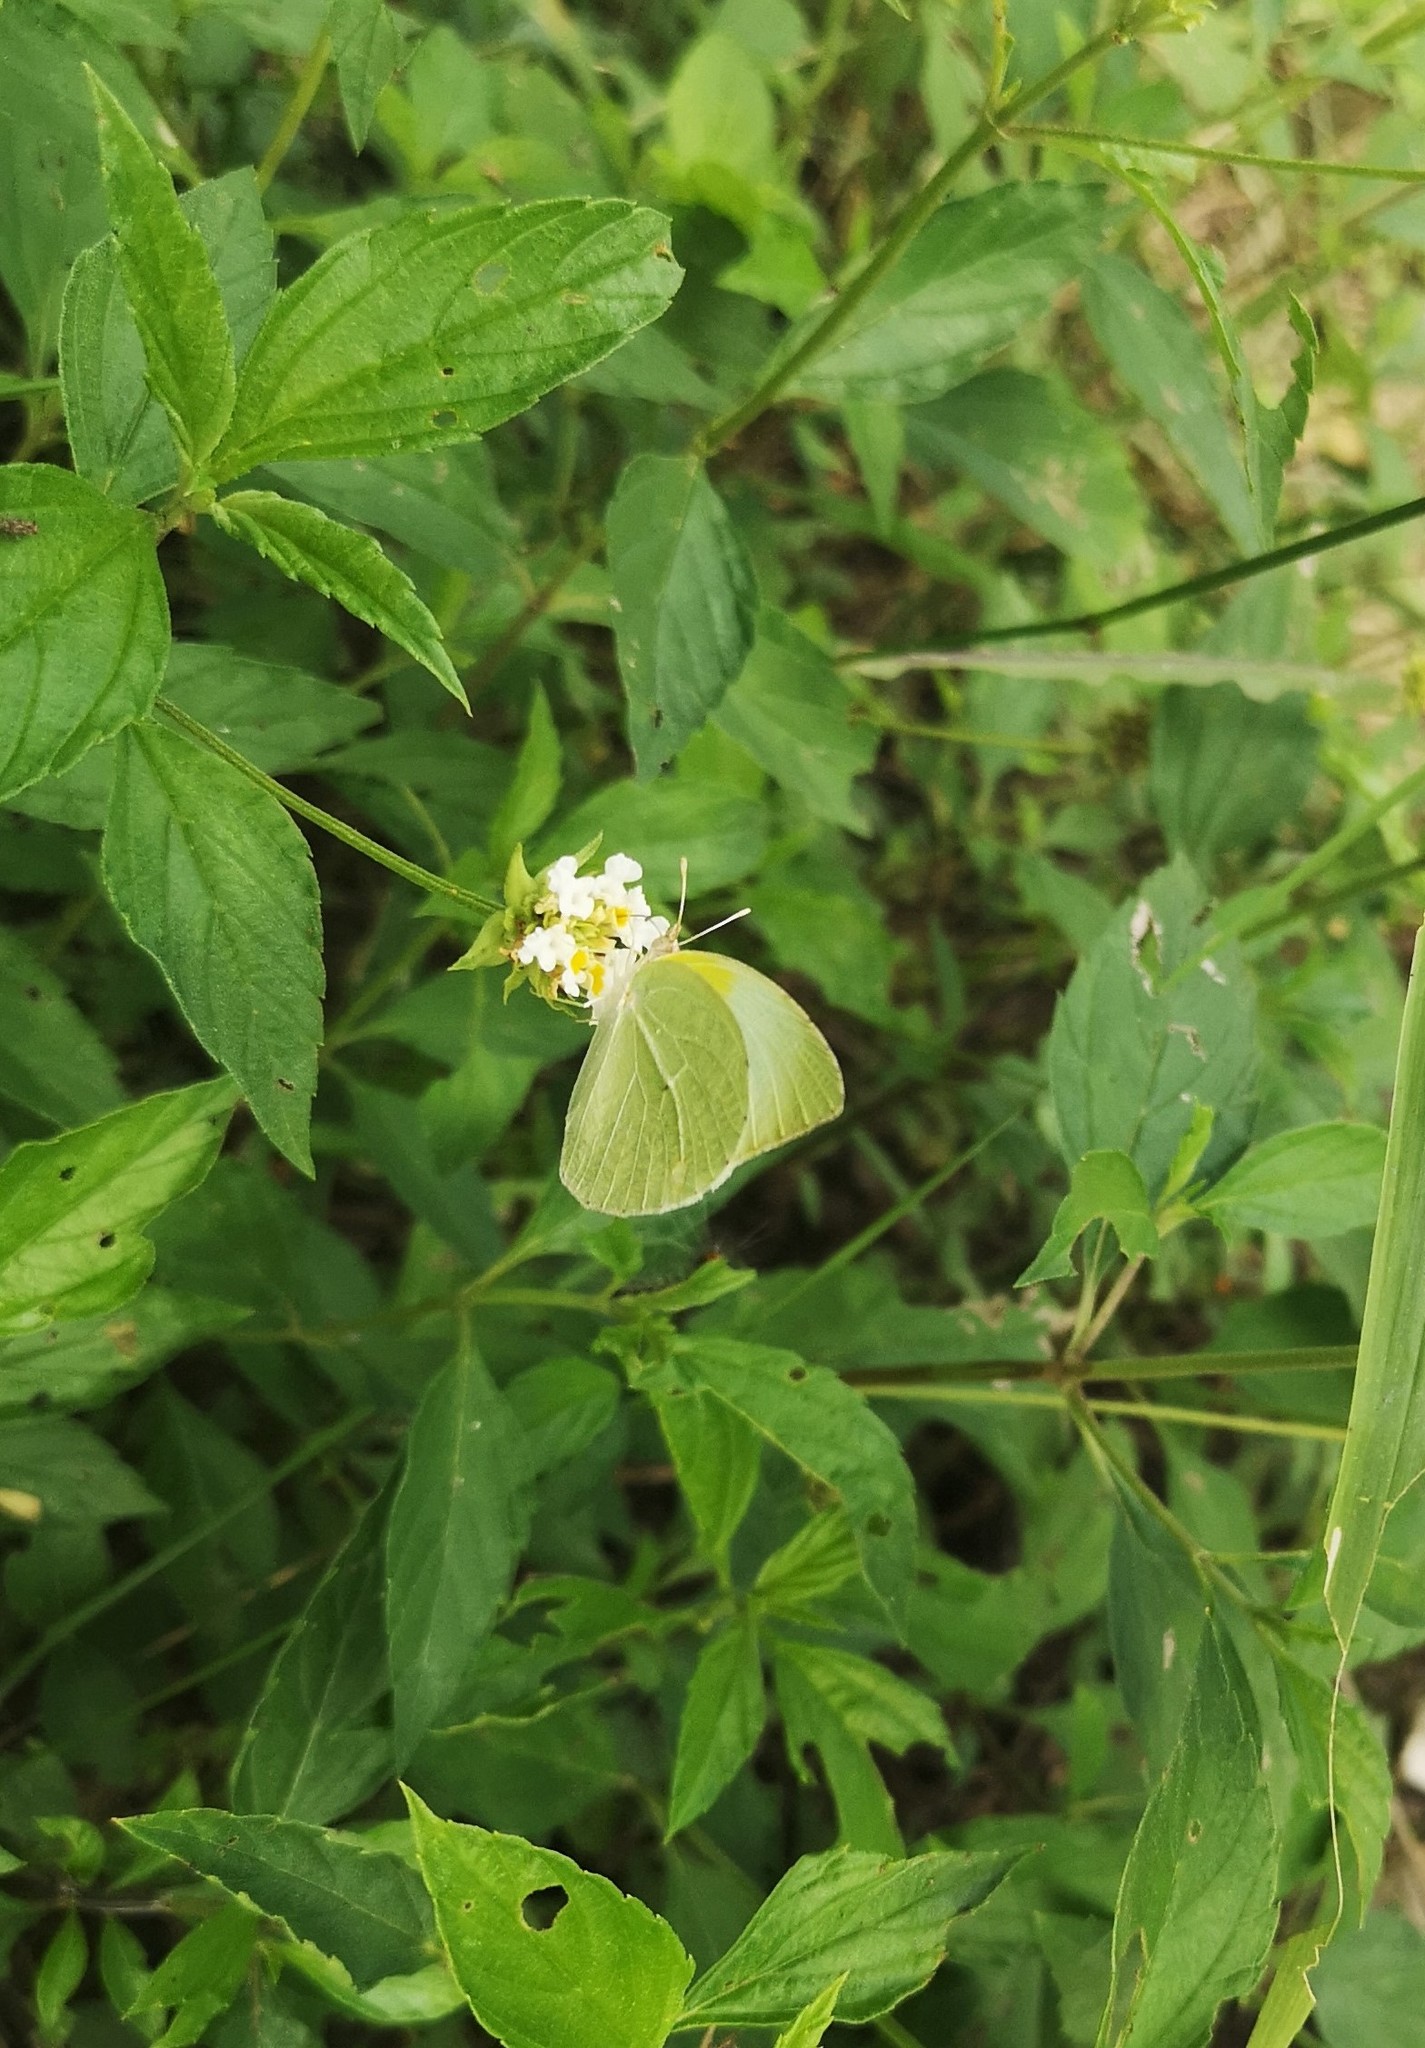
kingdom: Animalia
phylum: Arthropoda
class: Insecta
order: Lepidoptera
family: Pieridae
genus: Kricogonia
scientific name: Kricogonia lyside
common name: Guayacan sulphur,
